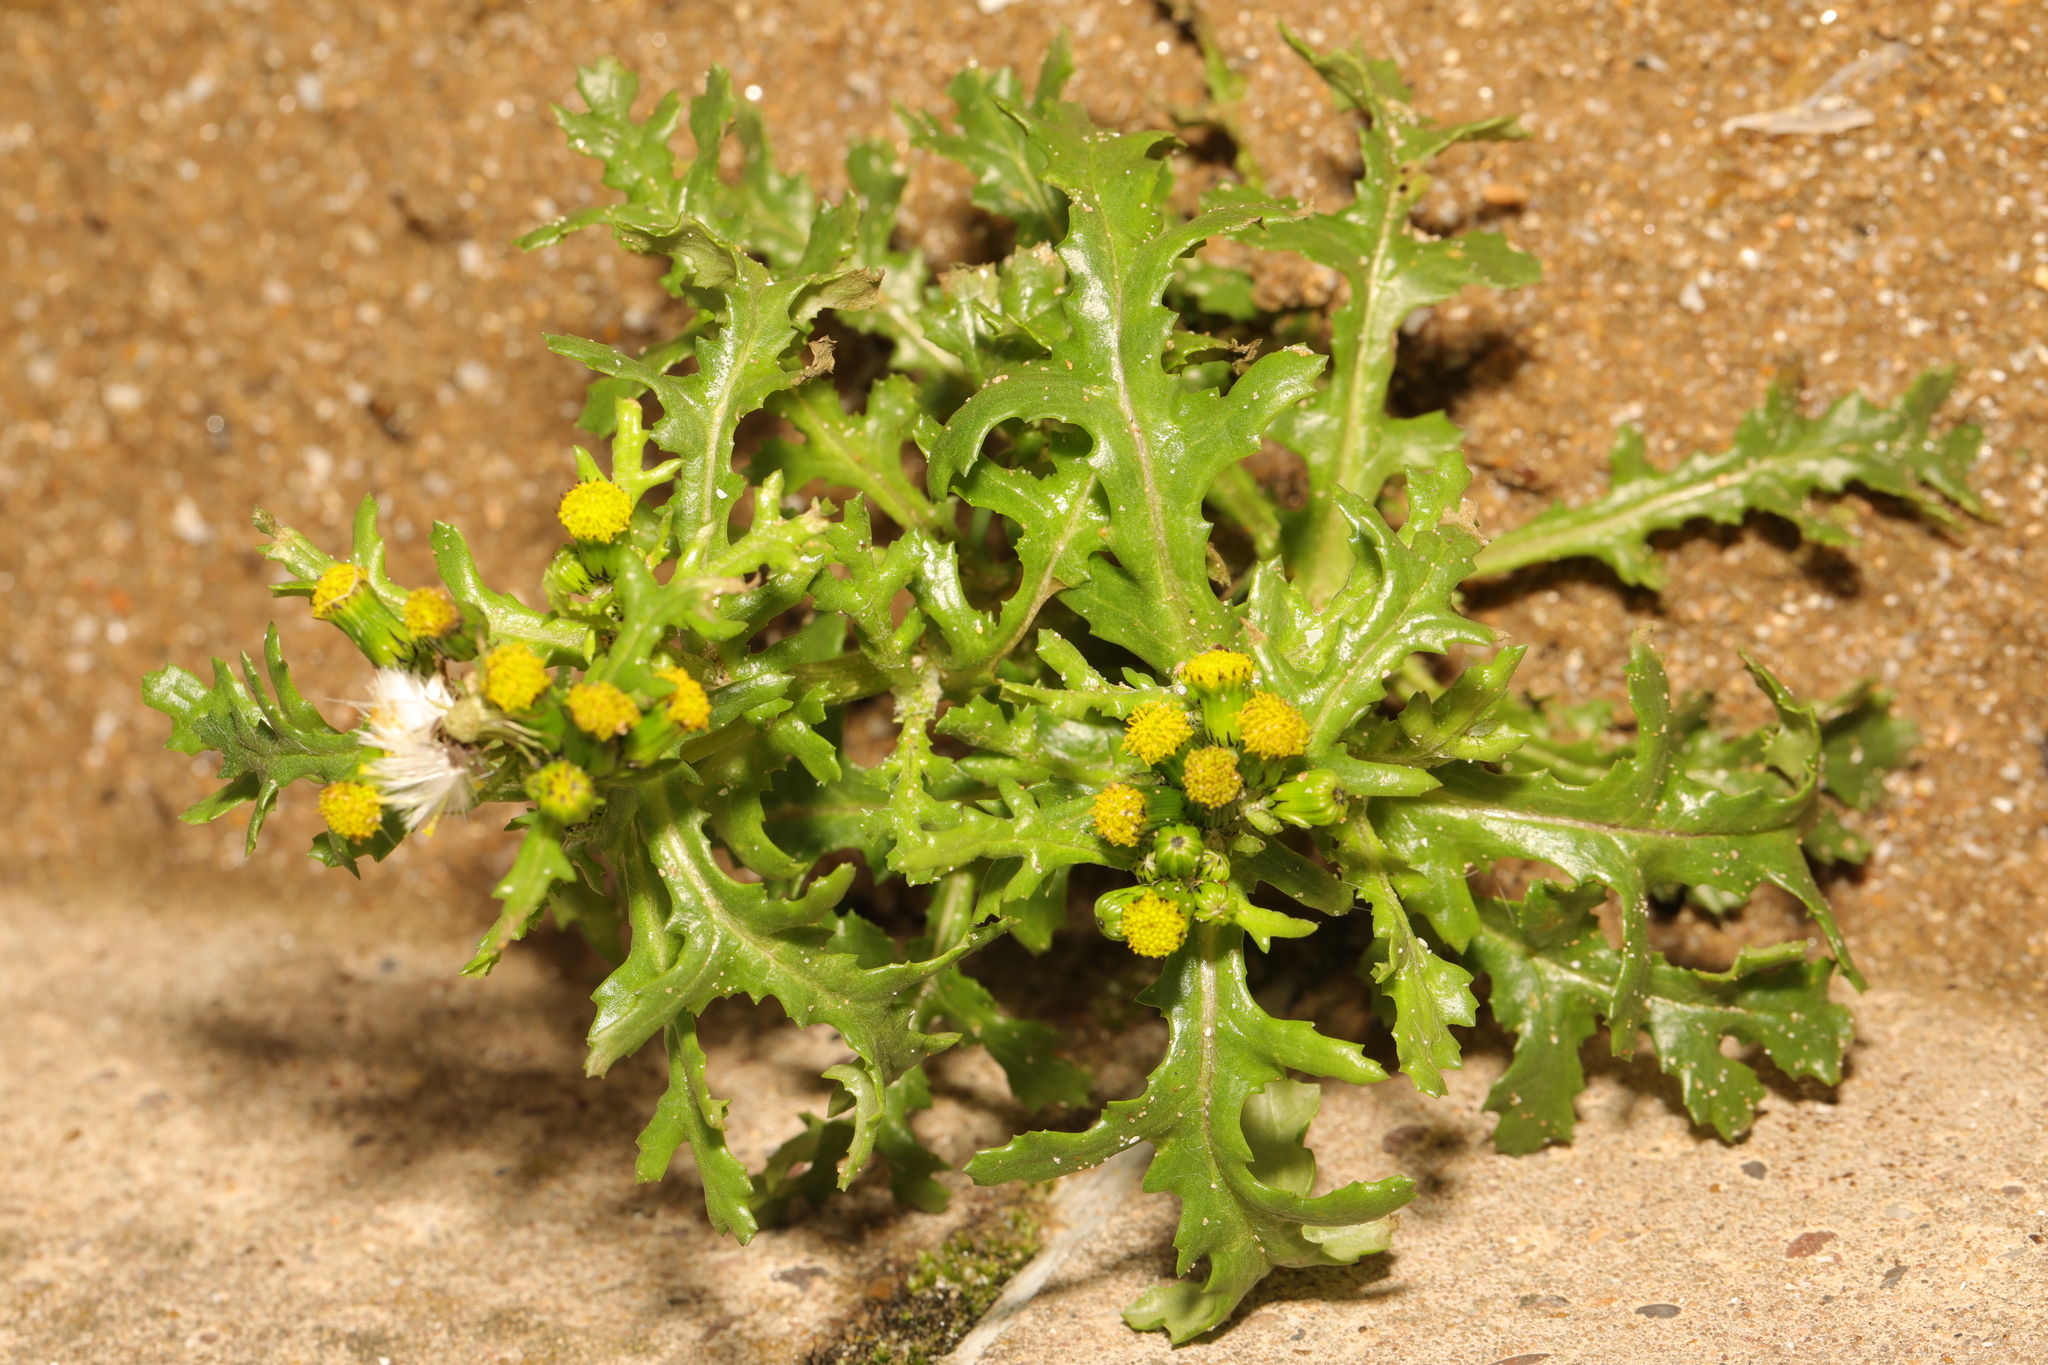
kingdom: Plantae
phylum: Tracheophyta
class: Magnoliopsida
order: Asterales
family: Asteraceae
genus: Senecio
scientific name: Senecio vulgaris
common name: Old-man-in-the-spring
